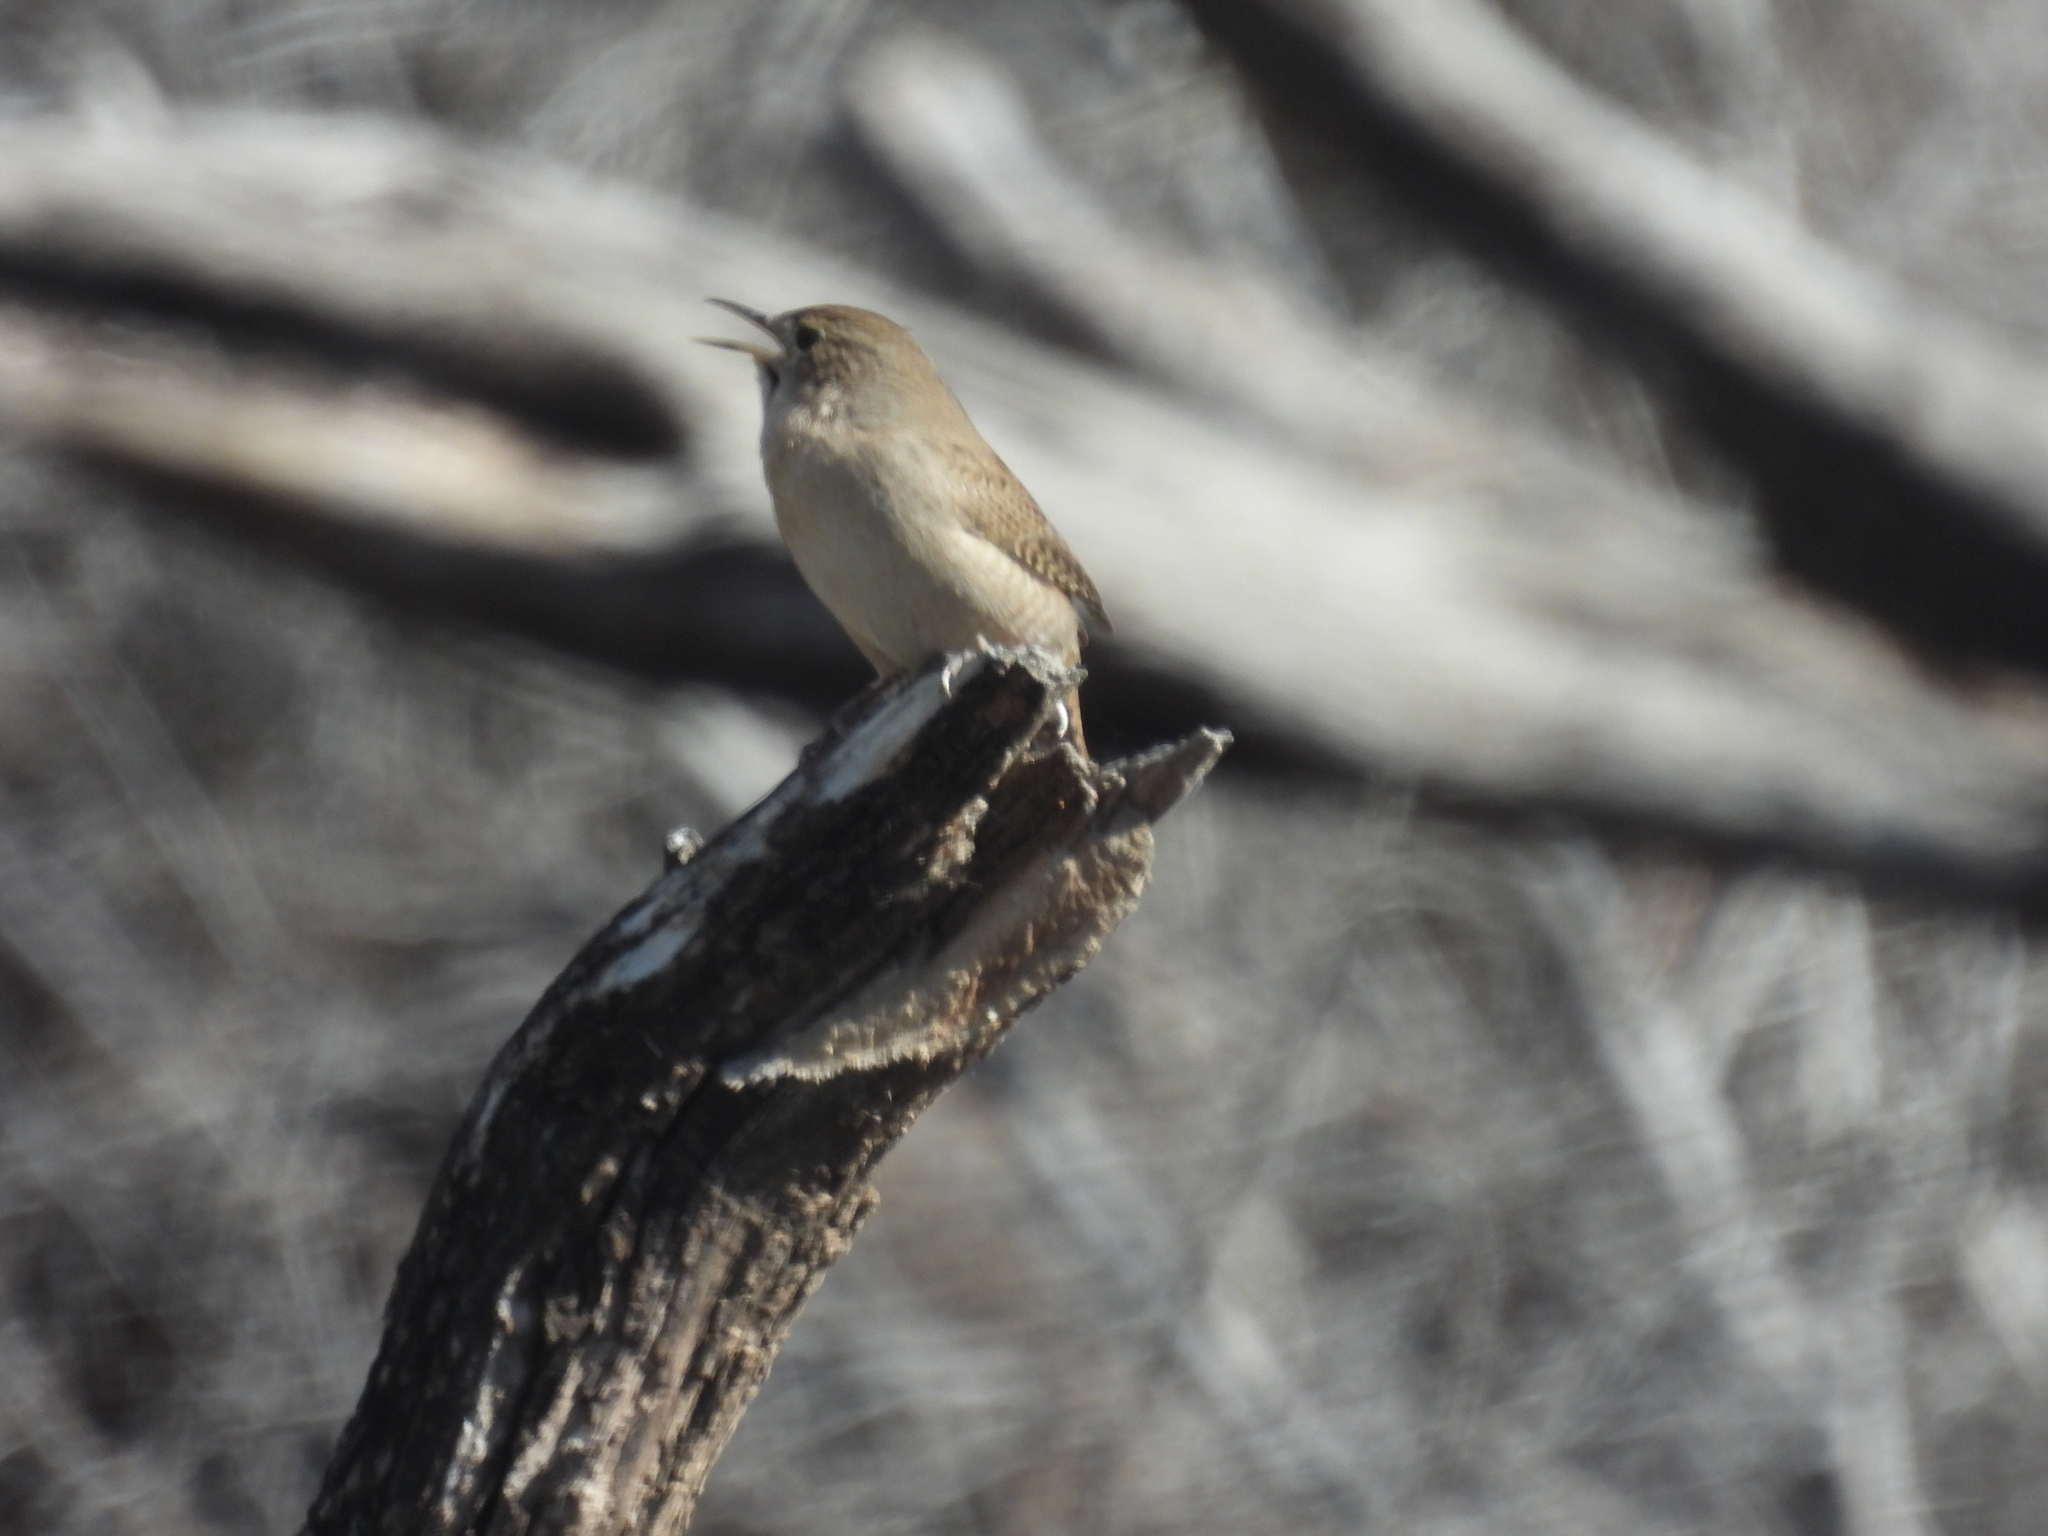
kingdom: Animalia
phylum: Chordata
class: Aves
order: Passeriformes
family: Troglodytidae
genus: Troglodytes
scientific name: Troglodytes aedon
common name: House wren
